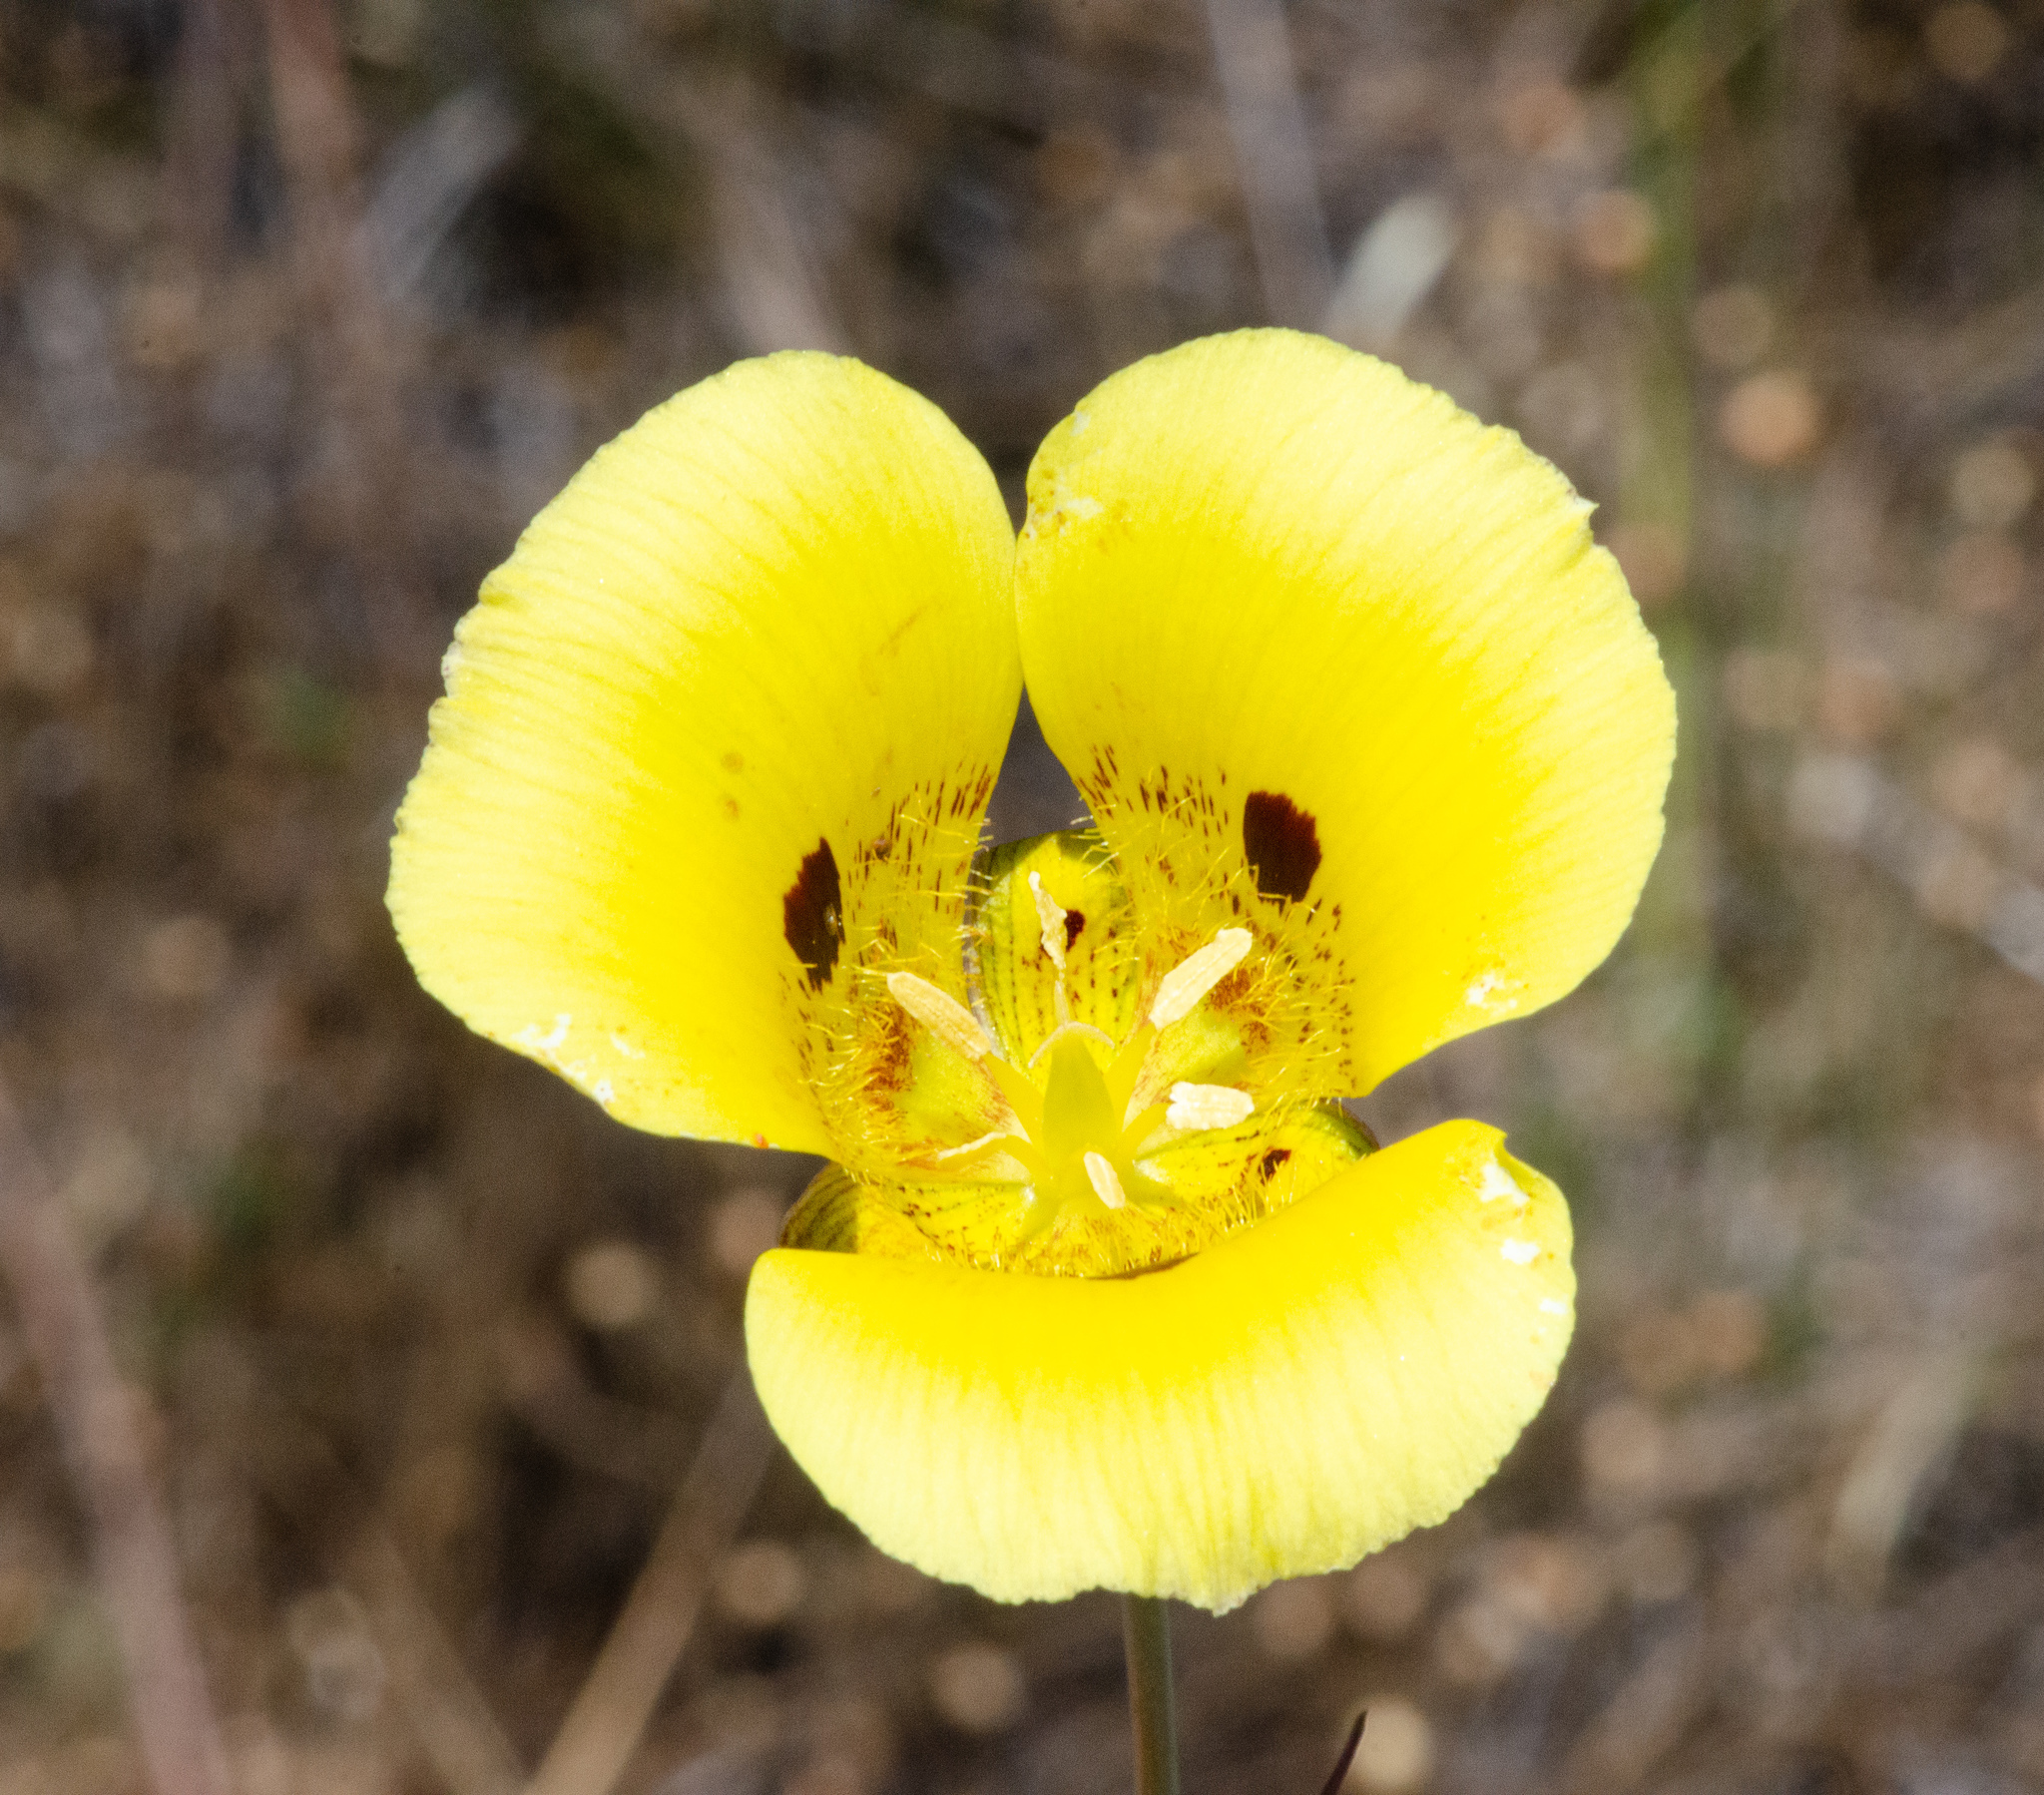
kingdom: Plantae
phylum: Tracheophyta
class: Liliopsida
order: Liliales
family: Liliaceae
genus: Calochortus
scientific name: Calochortus luteus
